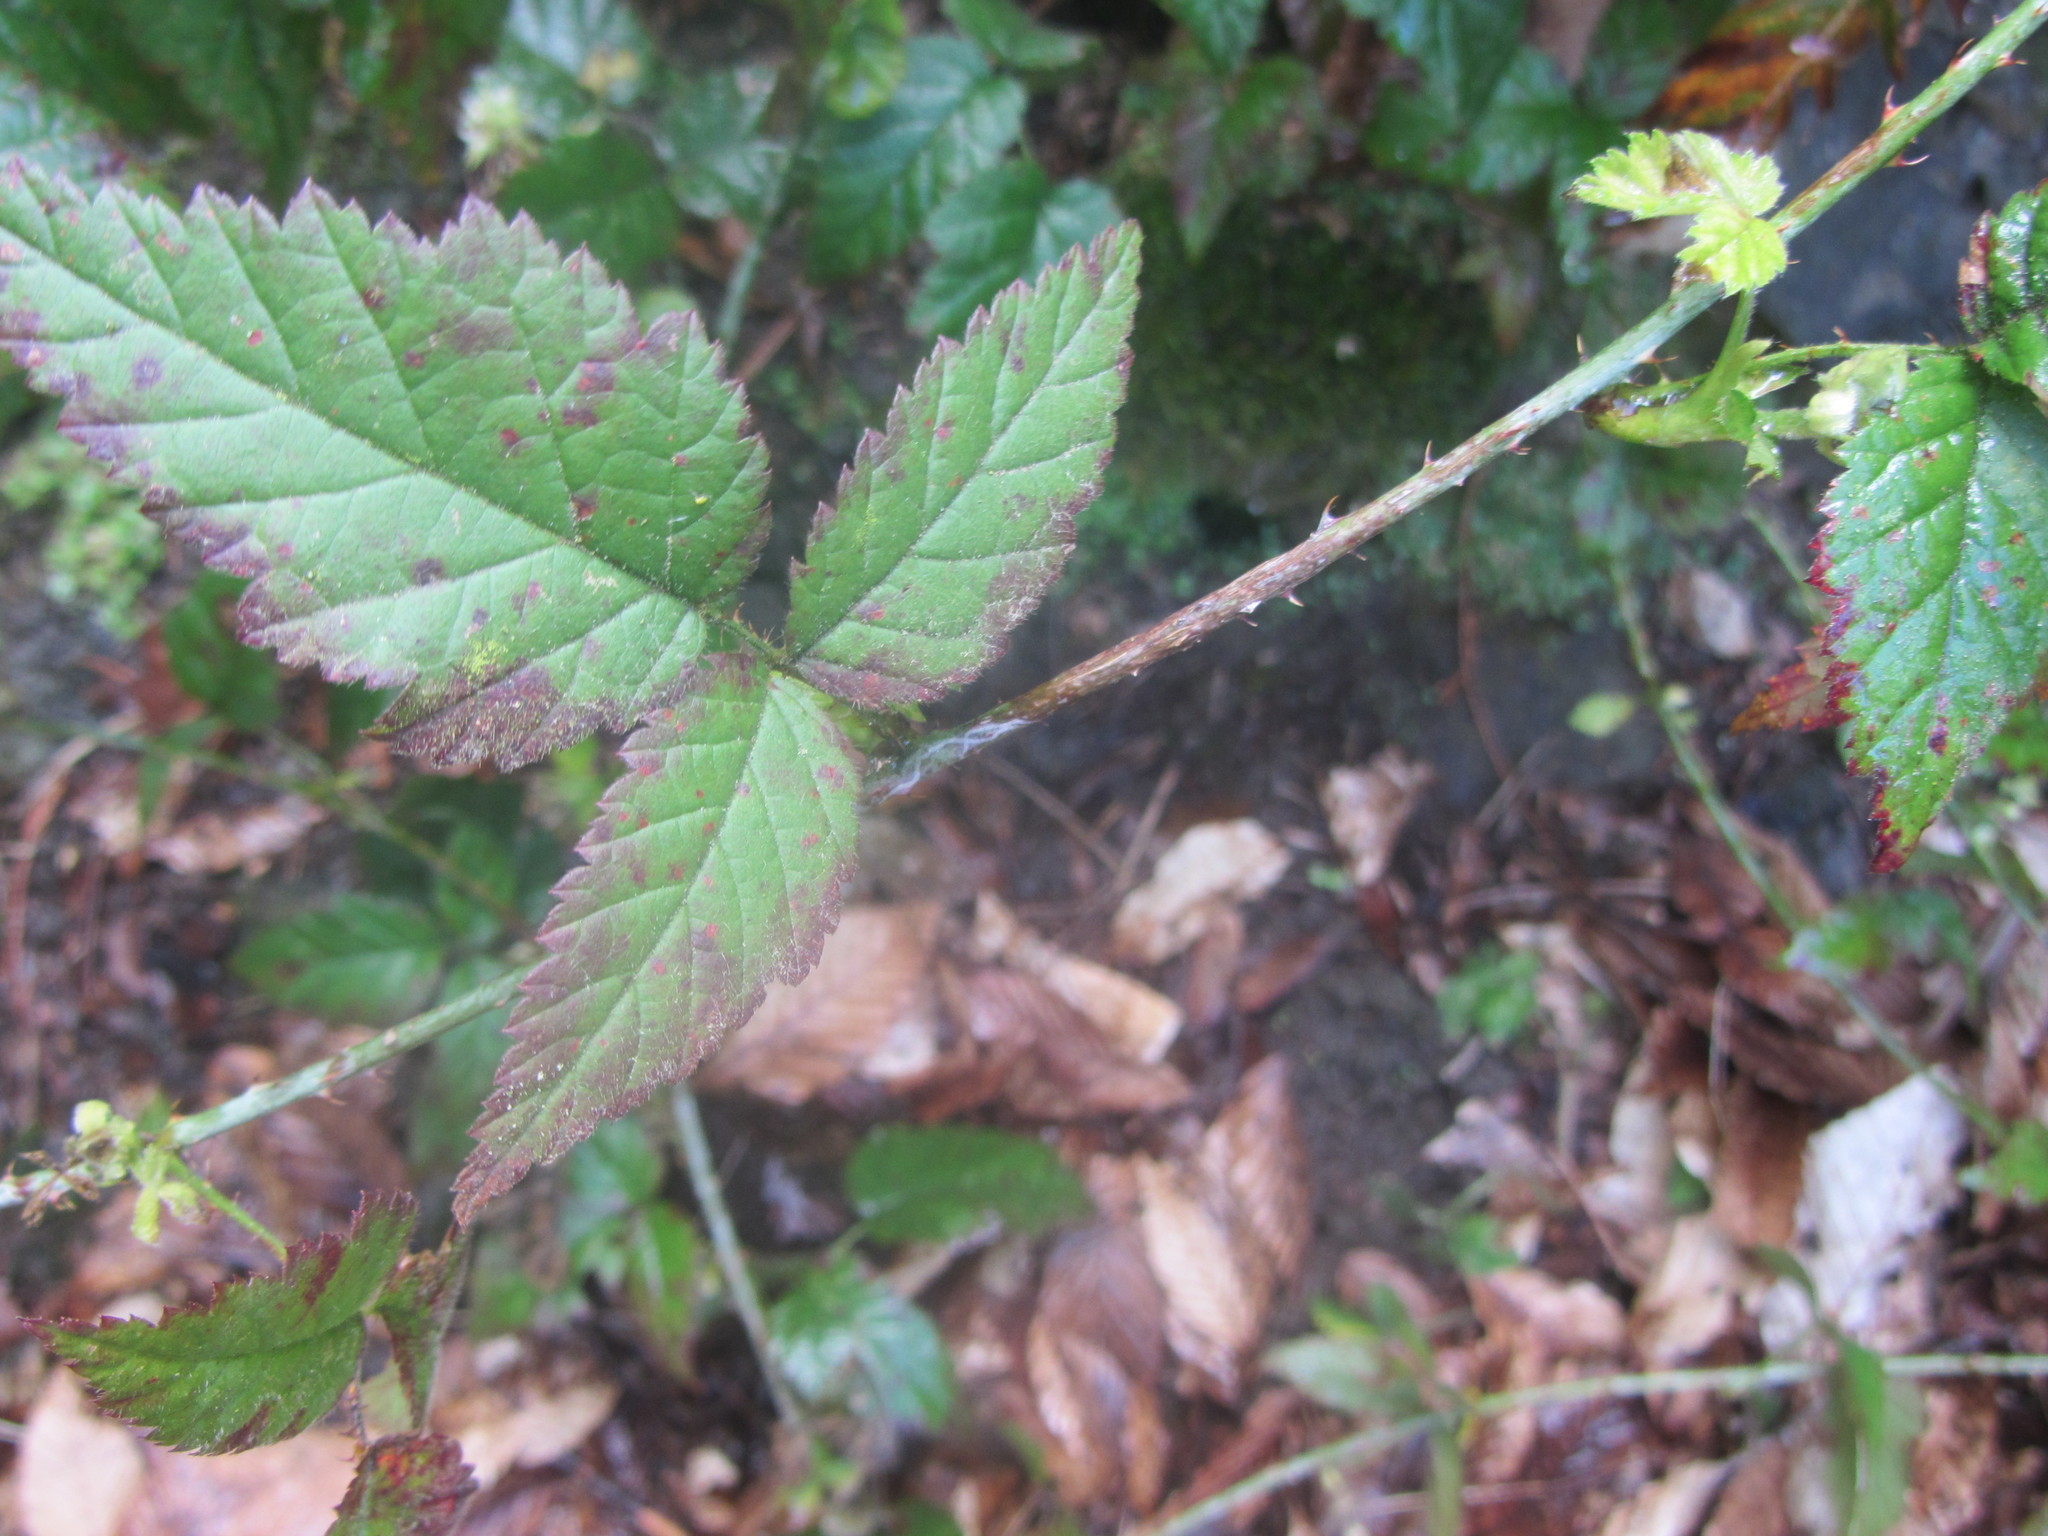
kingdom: Plantae
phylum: Tracheophyta
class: Magnoliopsida
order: Rosales
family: Rosaceae
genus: Rubus
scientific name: Rubus ursinus
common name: Pacific blackberry
